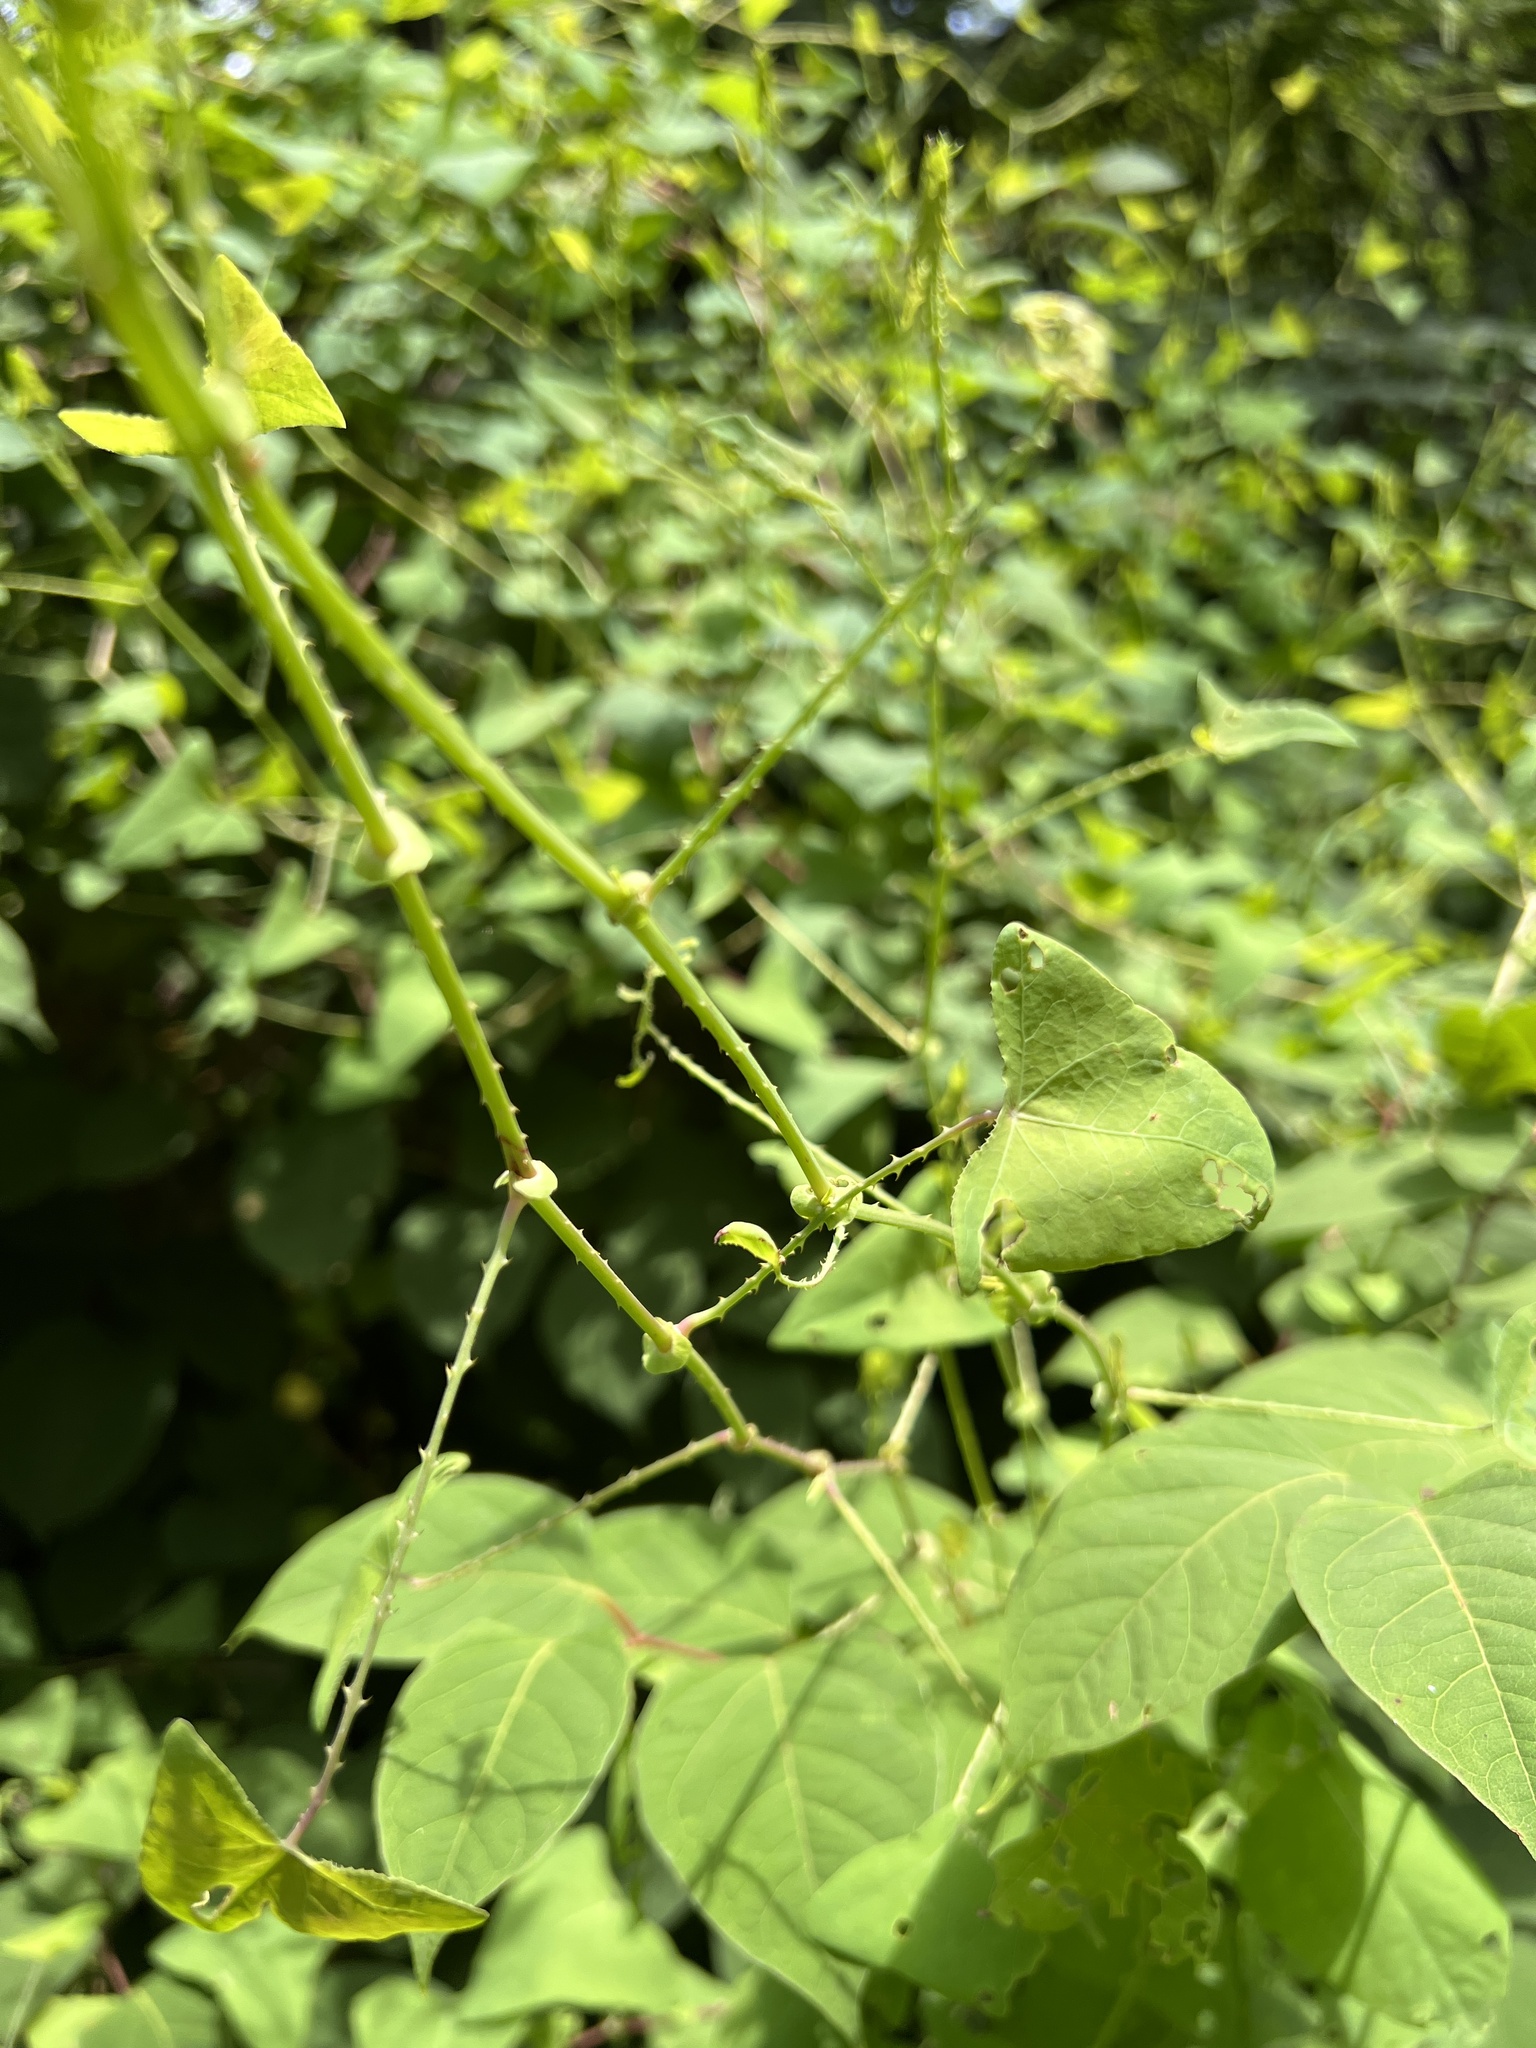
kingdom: Plantae
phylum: Tracheophyta
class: Magnoliopsida
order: Caryophyllales
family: Polygonaceae
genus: Persicaria
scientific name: Persicaria perfoliata
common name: Asiatic tearthumb
